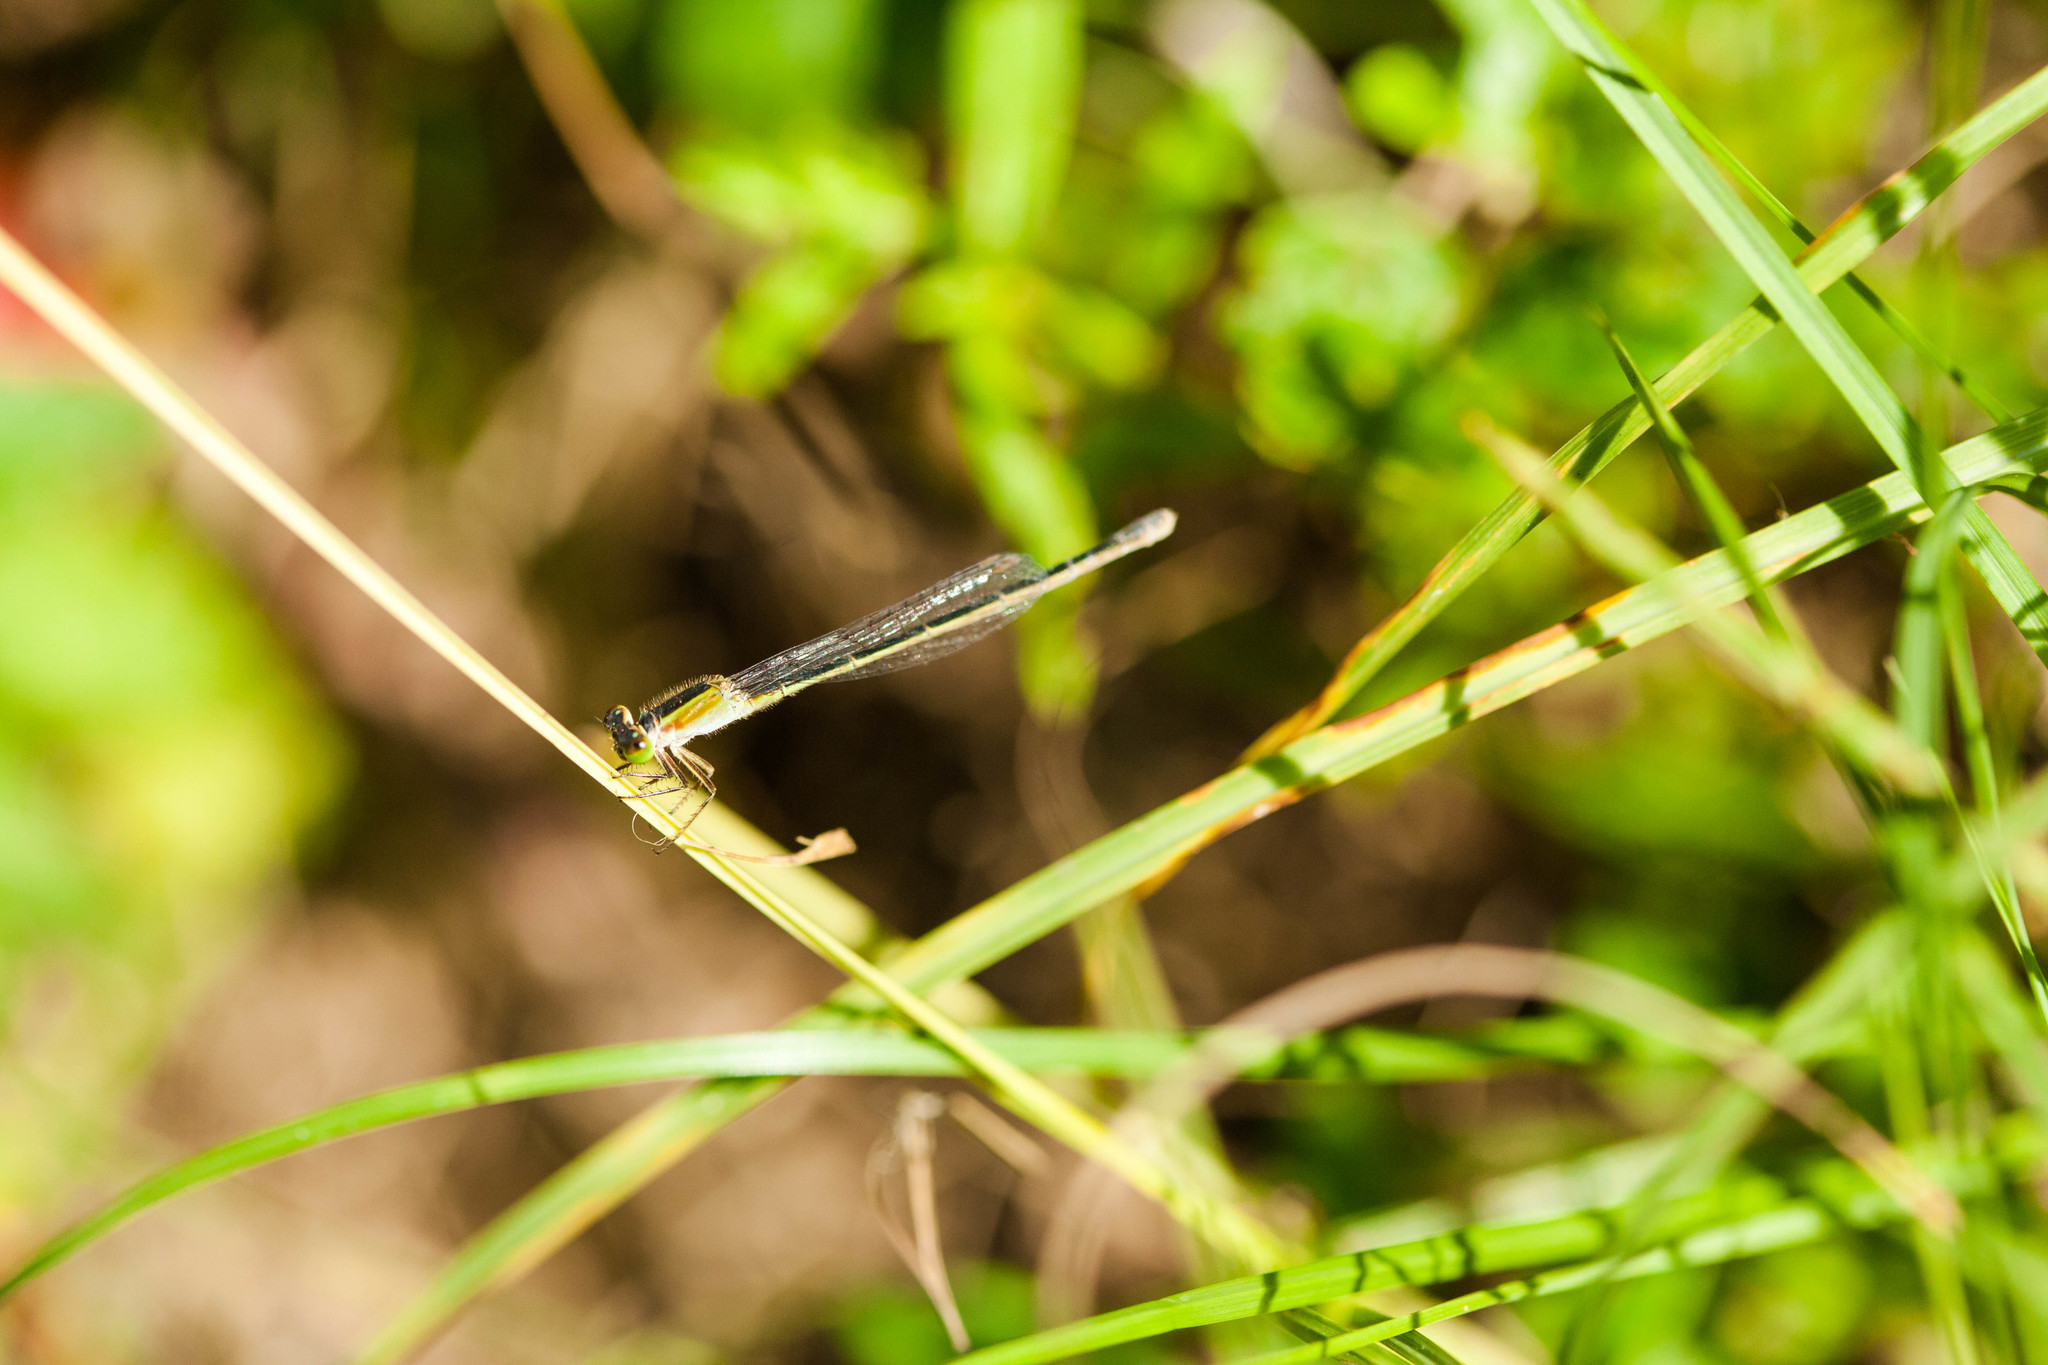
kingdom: Animalia
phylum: Arthropoda
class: Insecta
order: Odonata
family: Coenagrionidae
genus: Ischnura
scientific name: Ischnura ramburii
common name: Rambur's forktail
